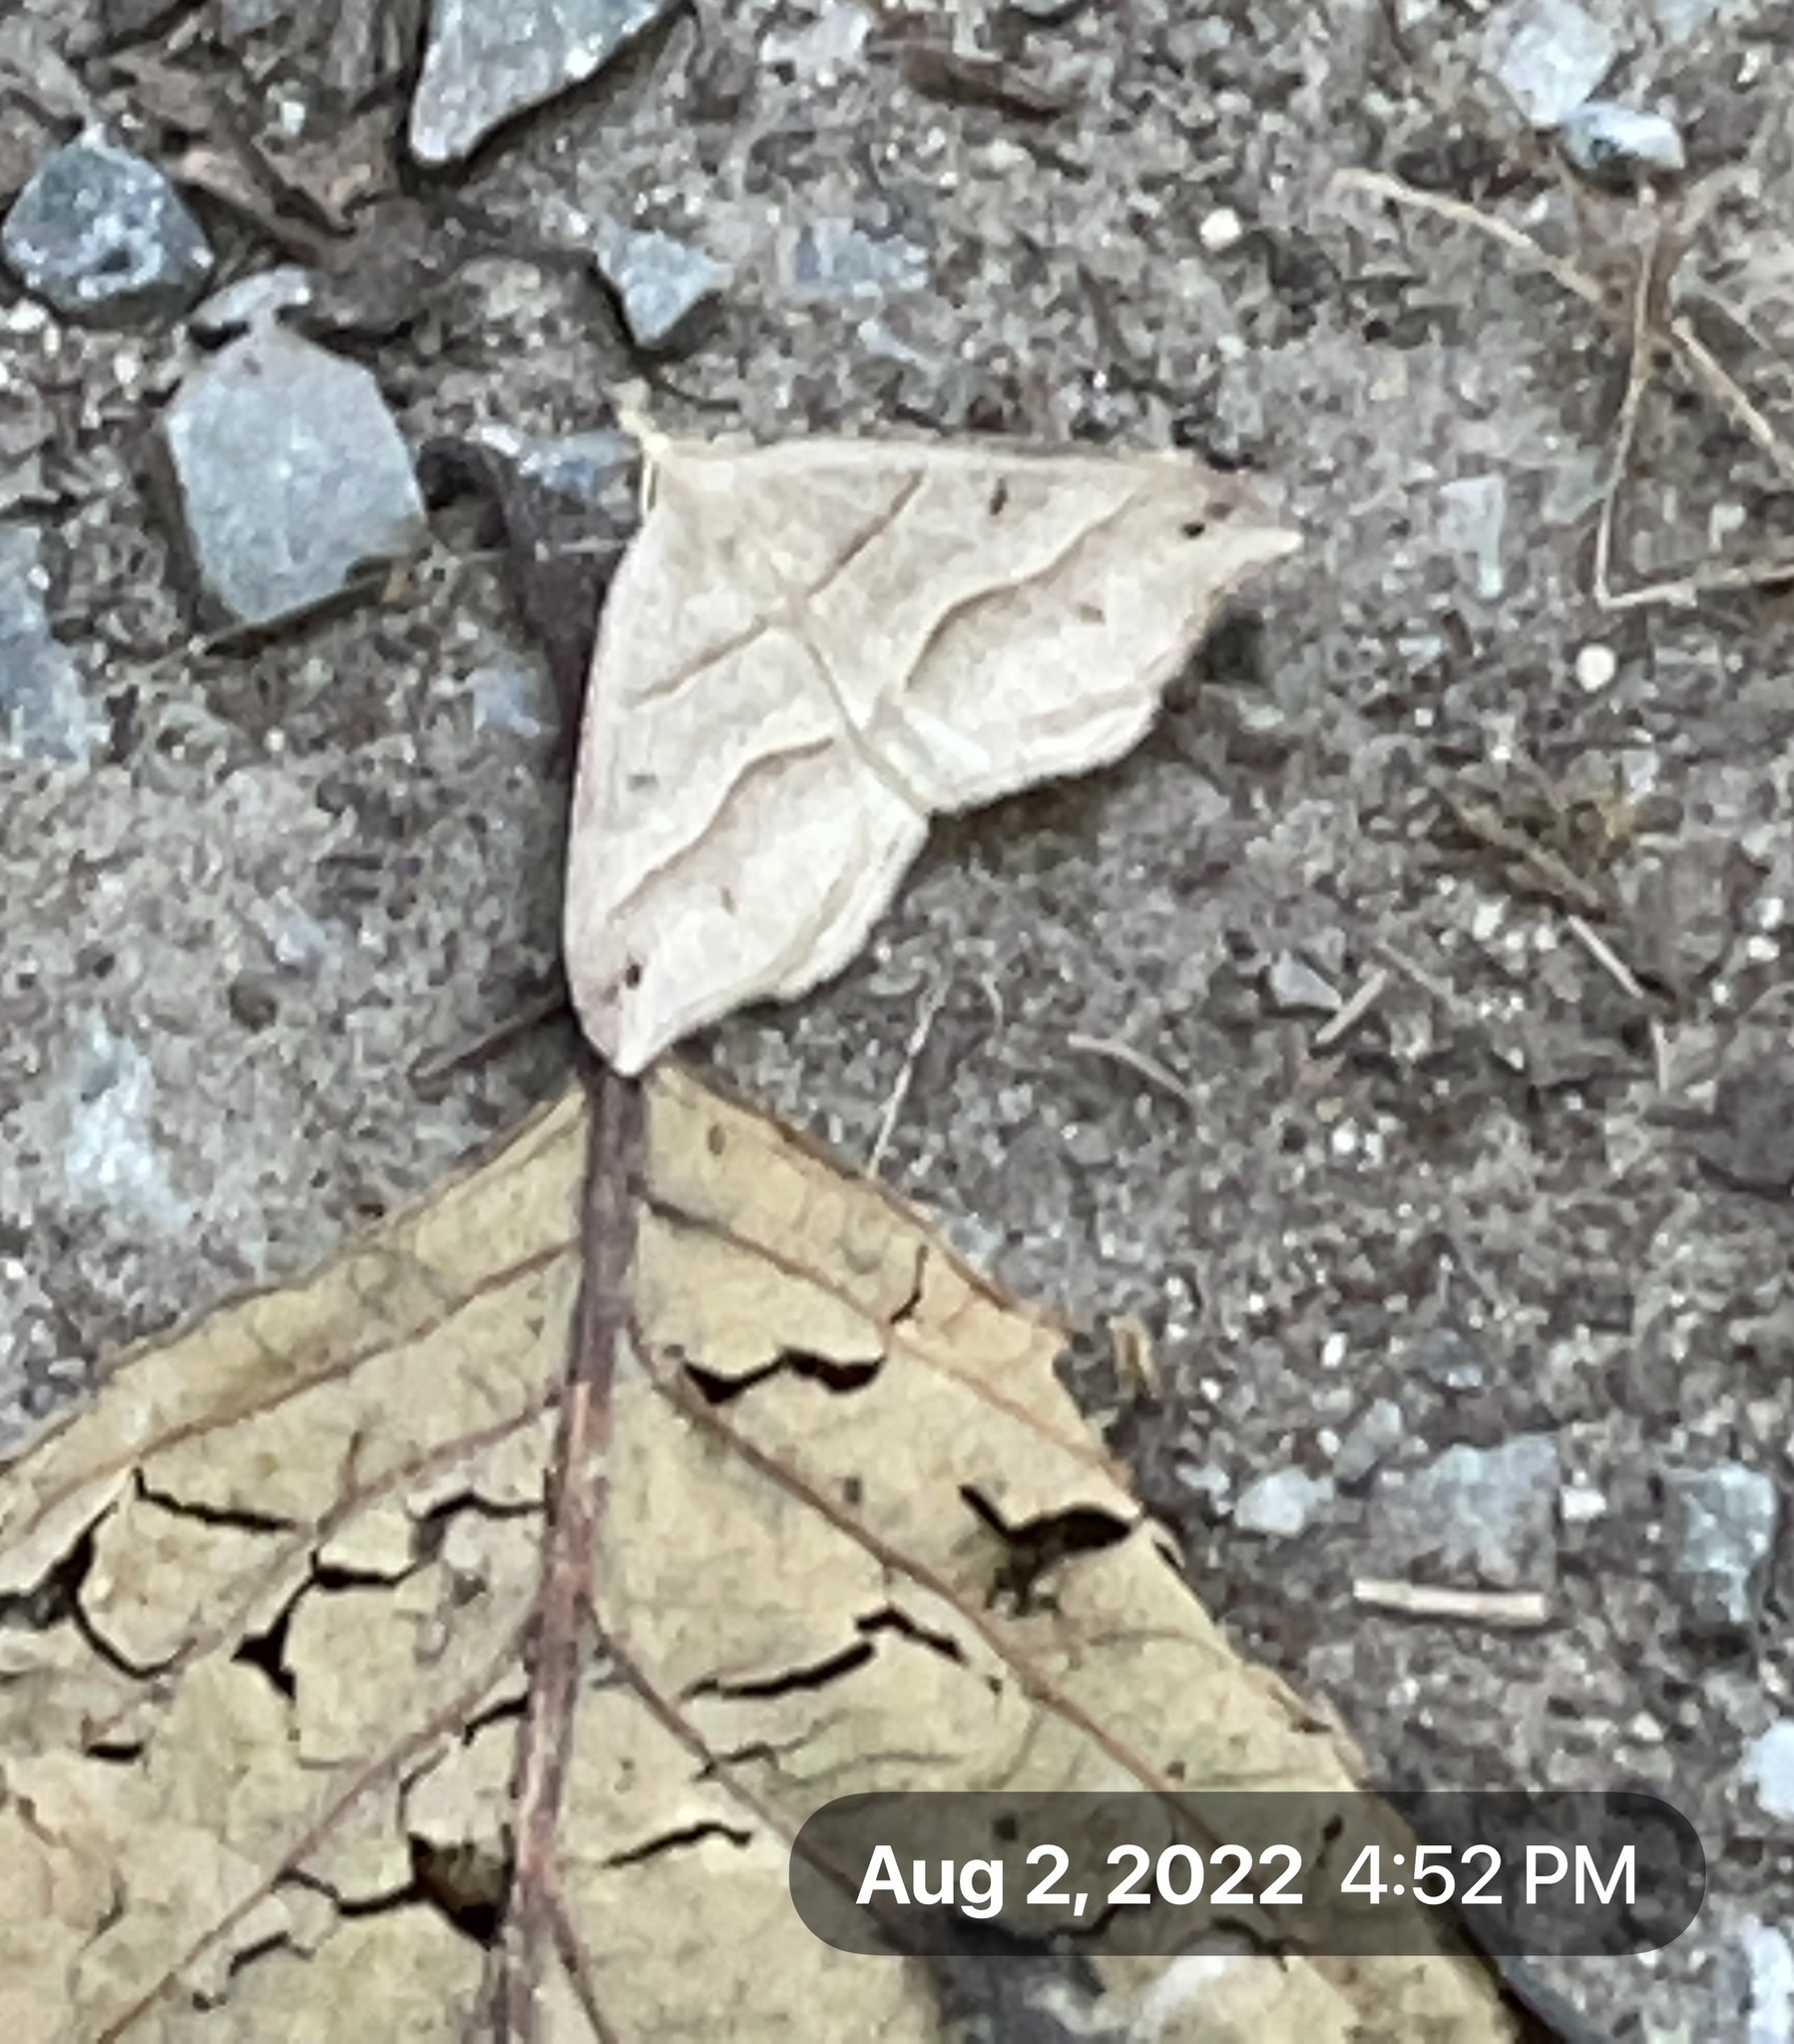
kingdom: Animalia
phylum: Arthropoda
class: Insecta
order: Lepidoptera
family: Geometridae
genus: Macaria
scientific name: Macaria lorquinaria
